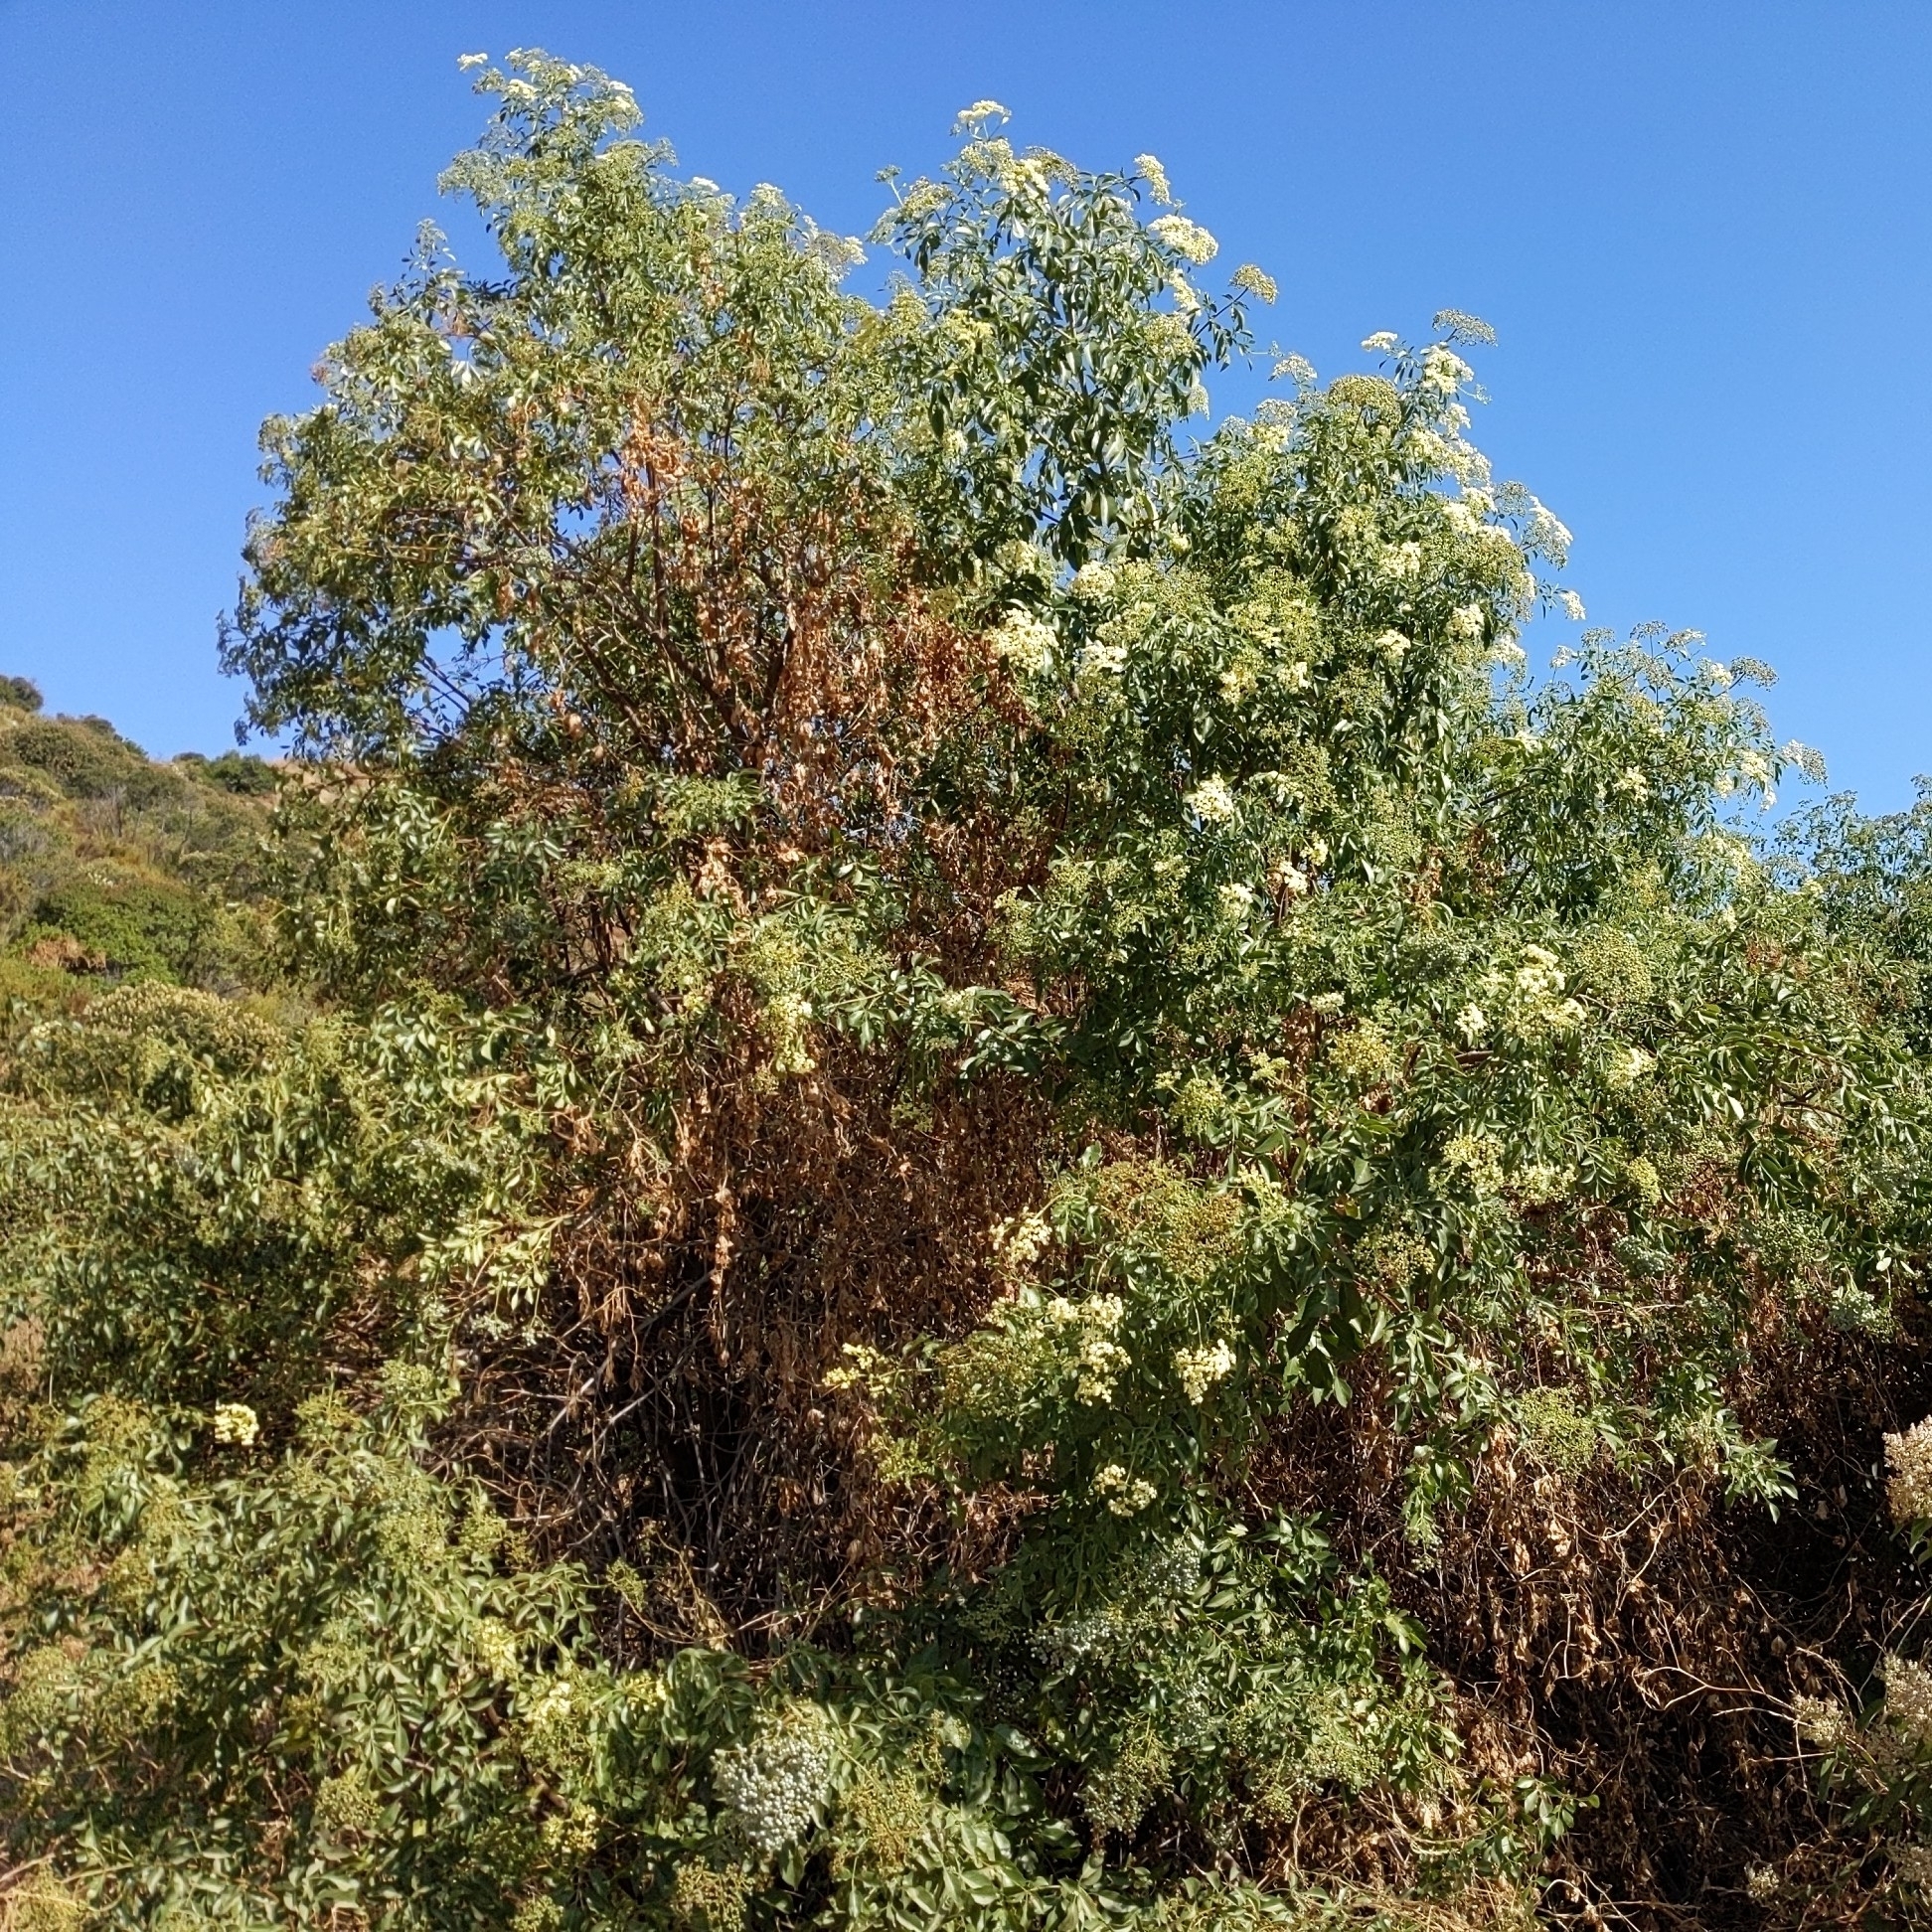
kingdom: Plantae
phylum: Tracheophyta
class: Magnoliopsida
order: Dipsacales
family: Viburnaceae
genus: Sambucus
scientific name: Sambucus cerulea
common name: Blue elder
